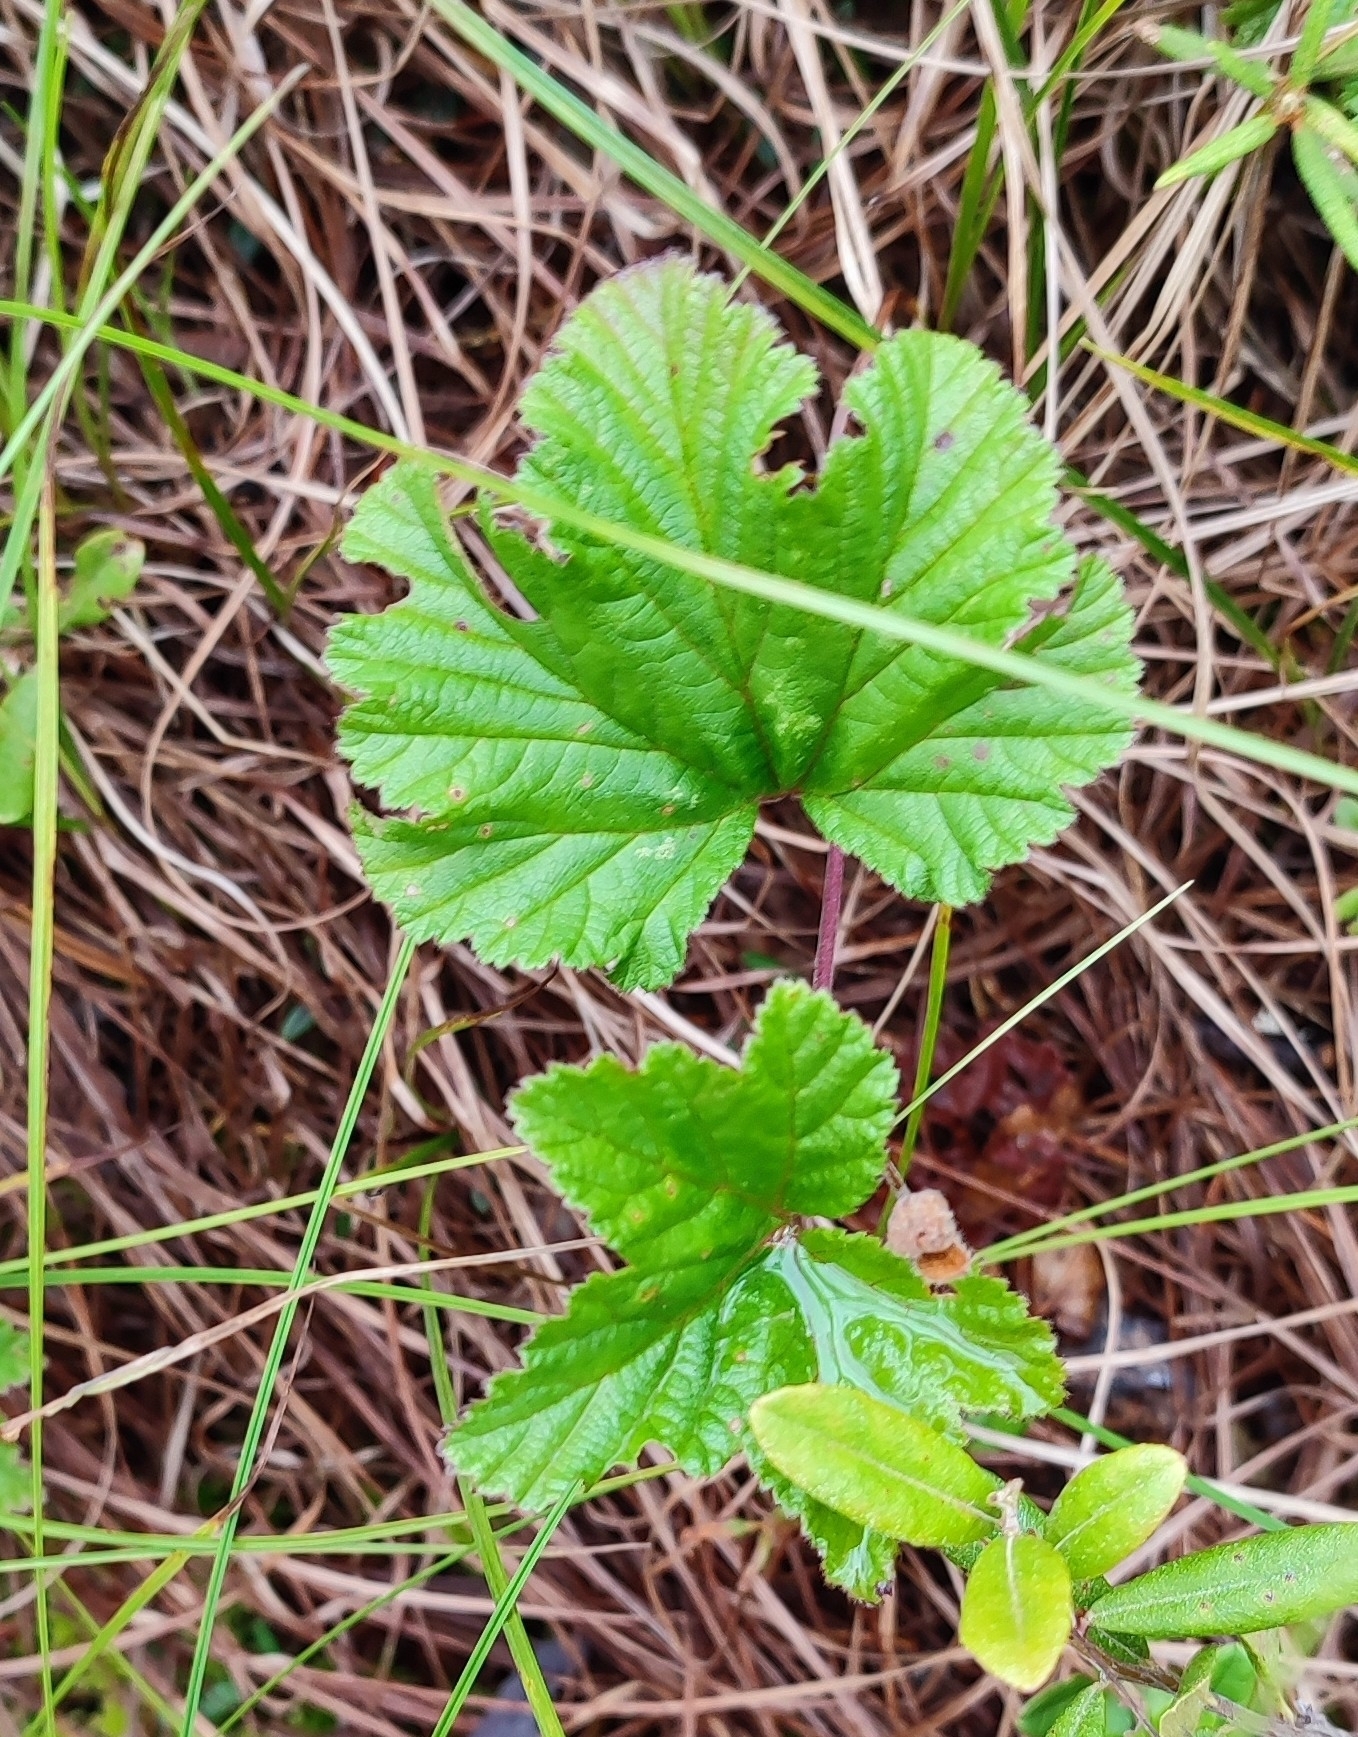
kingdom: Plantae
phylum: Tracheophyta
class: Magnoliopsida
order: Rosales
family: Rosaceae
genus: Rubus
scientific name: Rubus chamaemorus
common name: Cloudberry
